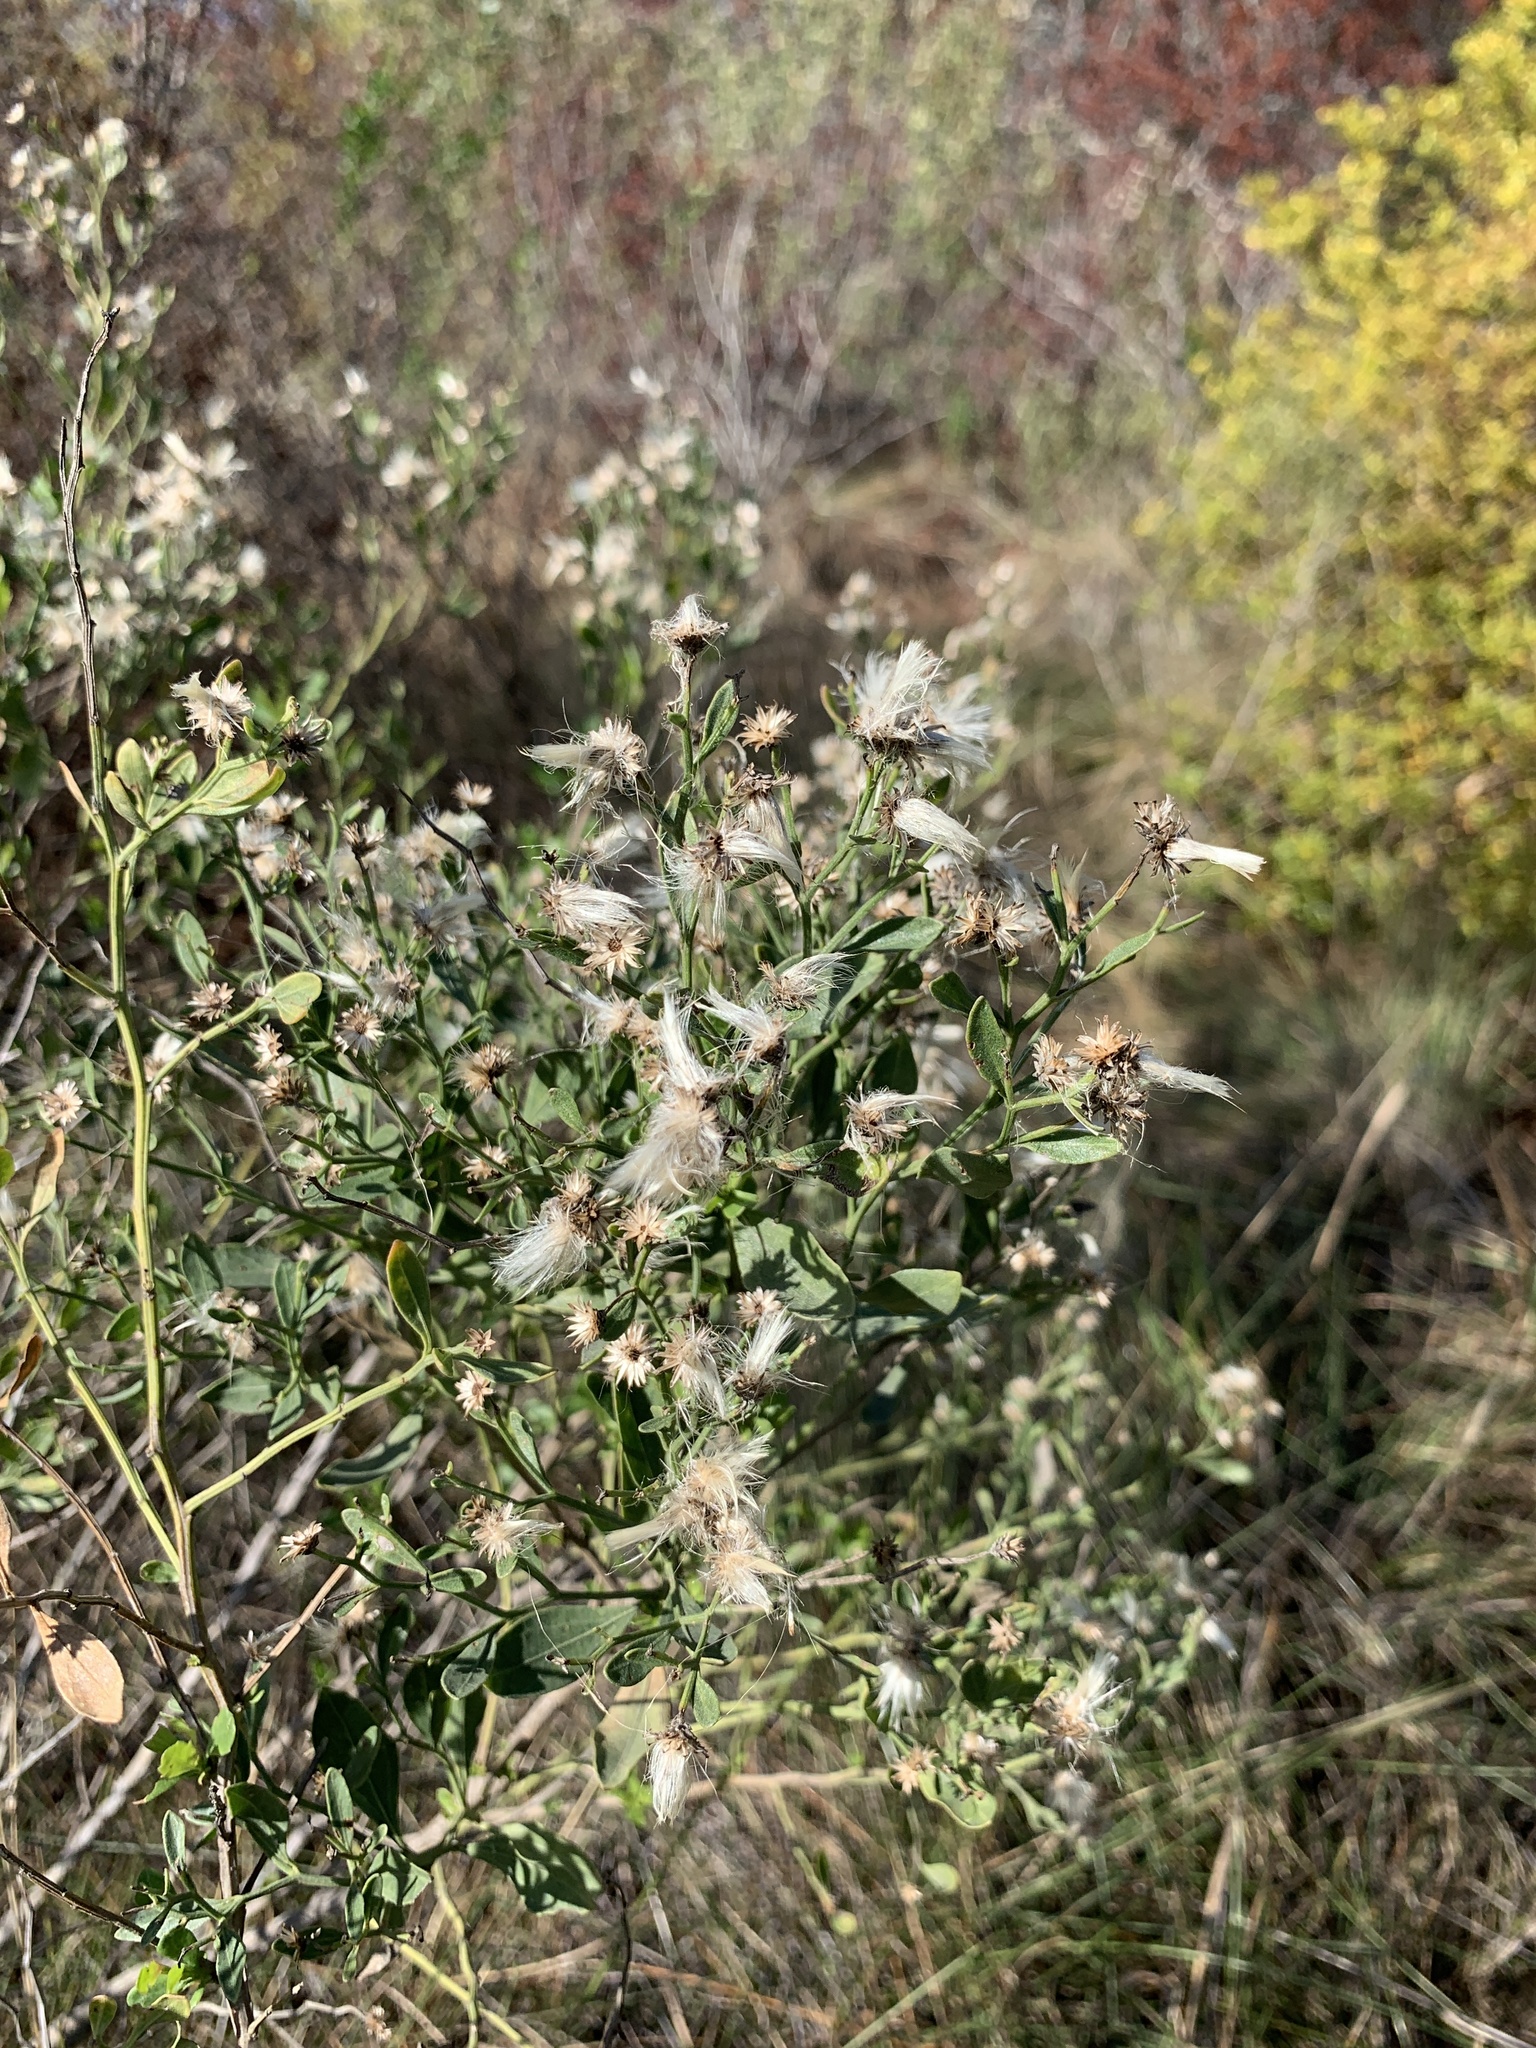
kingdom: Plantae
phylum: Tracheophyta
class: Magnoliopsida
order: Asterales
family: Asteraceae
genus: Baccharis
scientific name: Baccharis halimifolia
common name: Eastern baccharis
